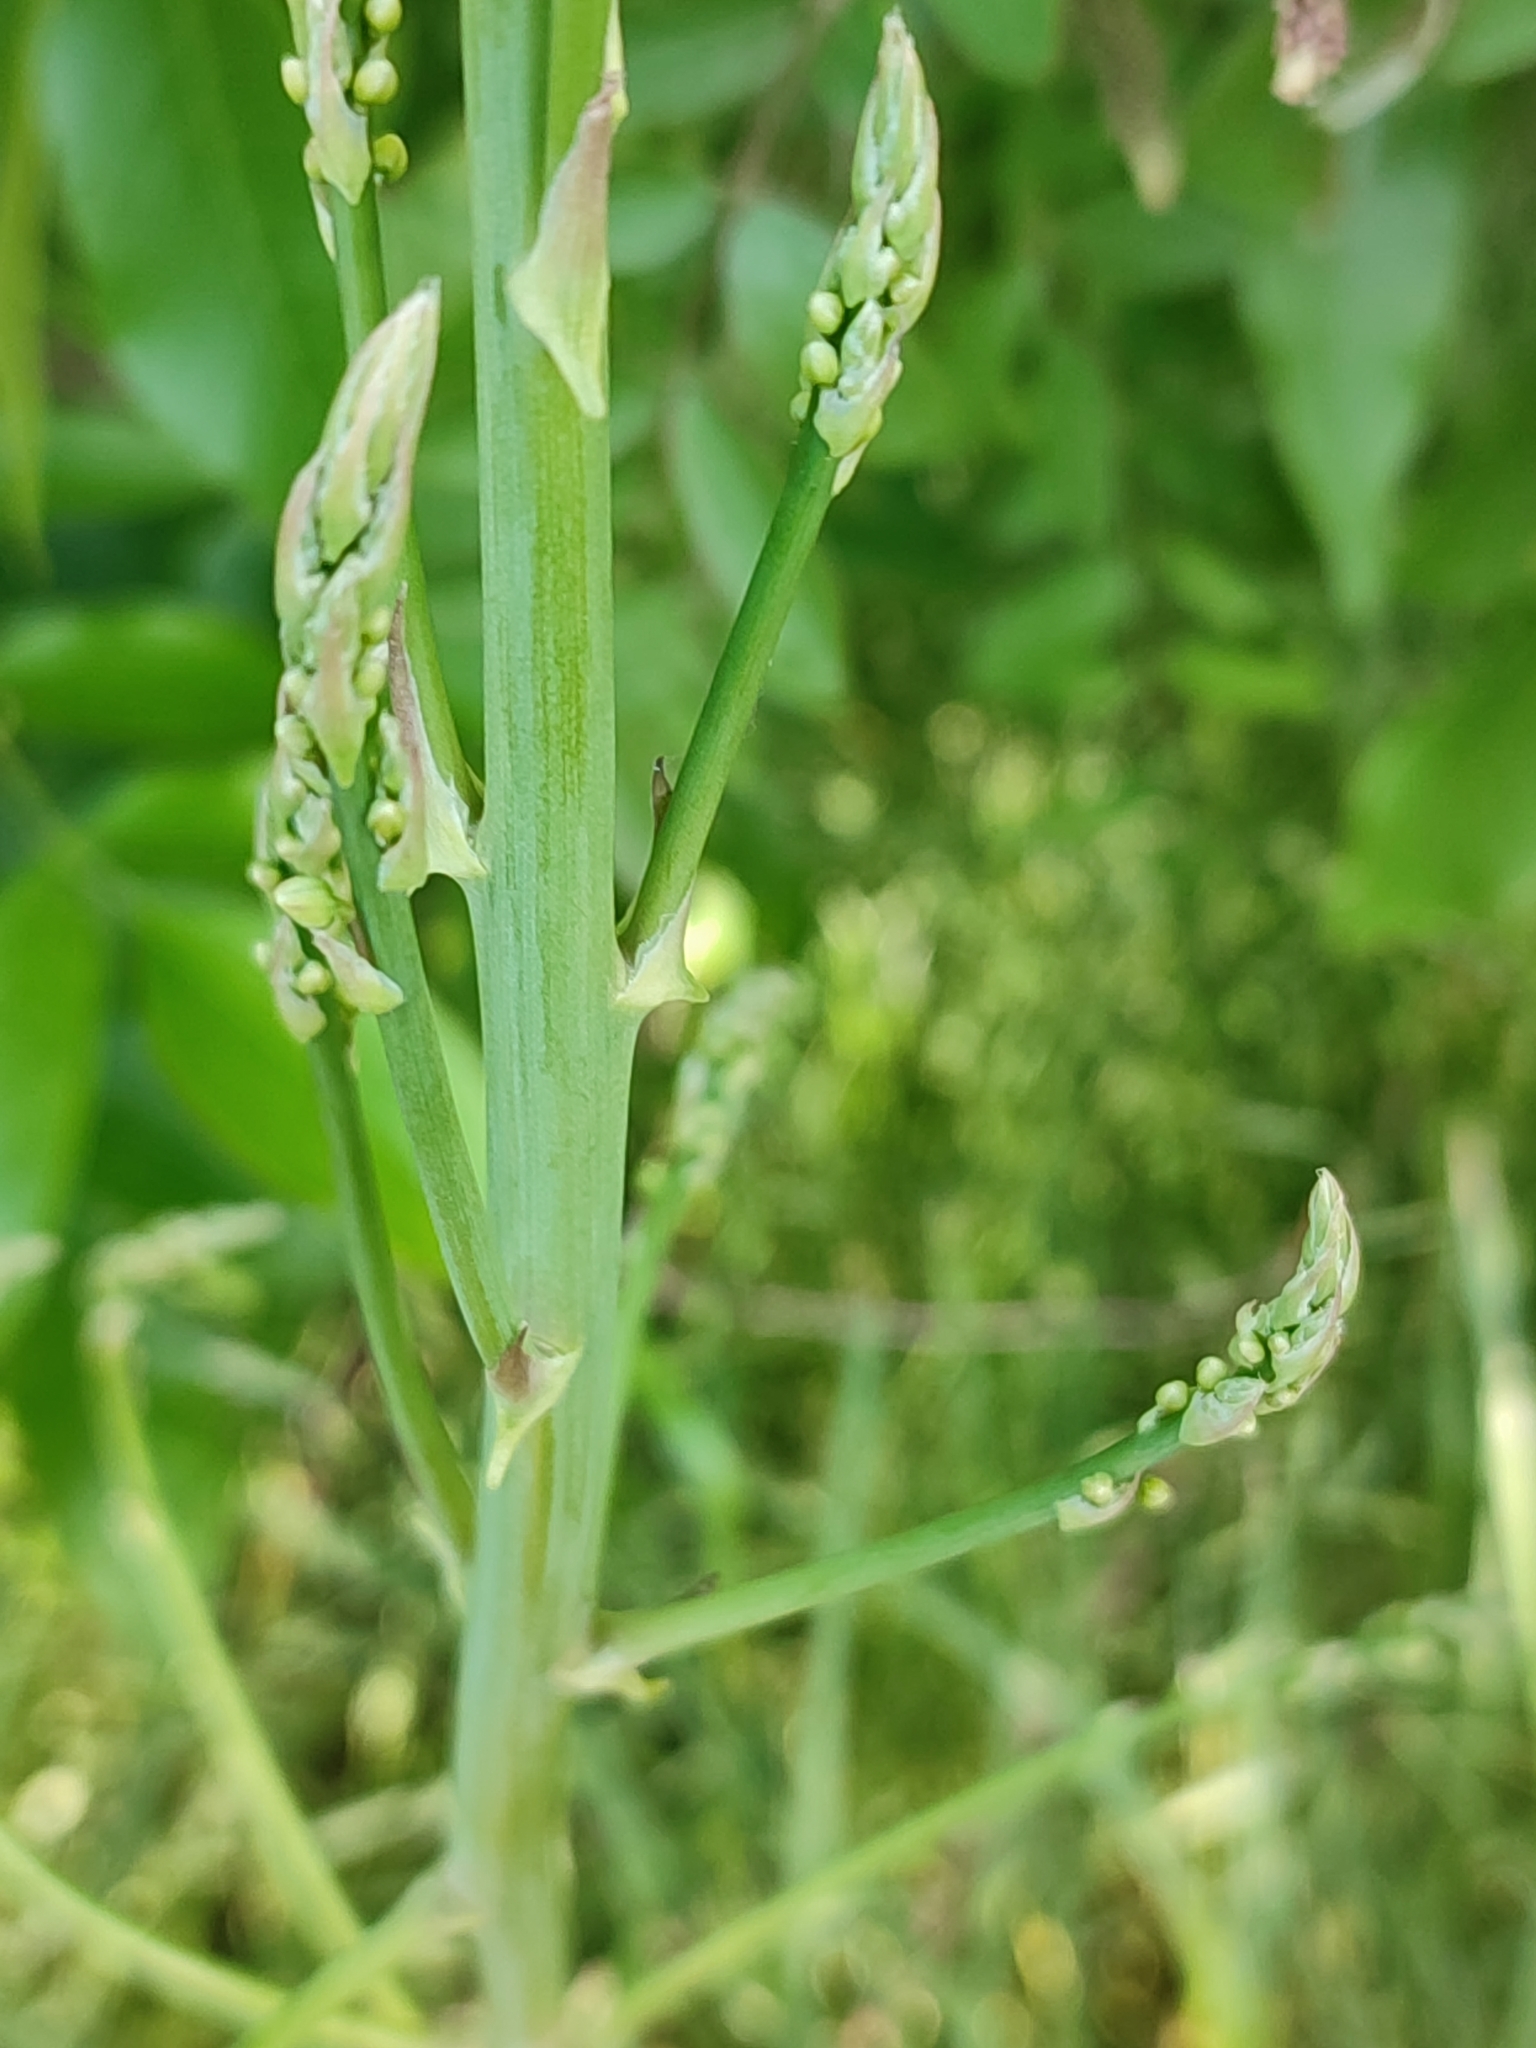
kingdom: Plantae
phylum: Tracheophyta
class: Liliopsida
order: Asparagales
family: Asparagaceae
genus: Asparagus
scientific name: Asparagus officinalis
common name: Garden asparagus
